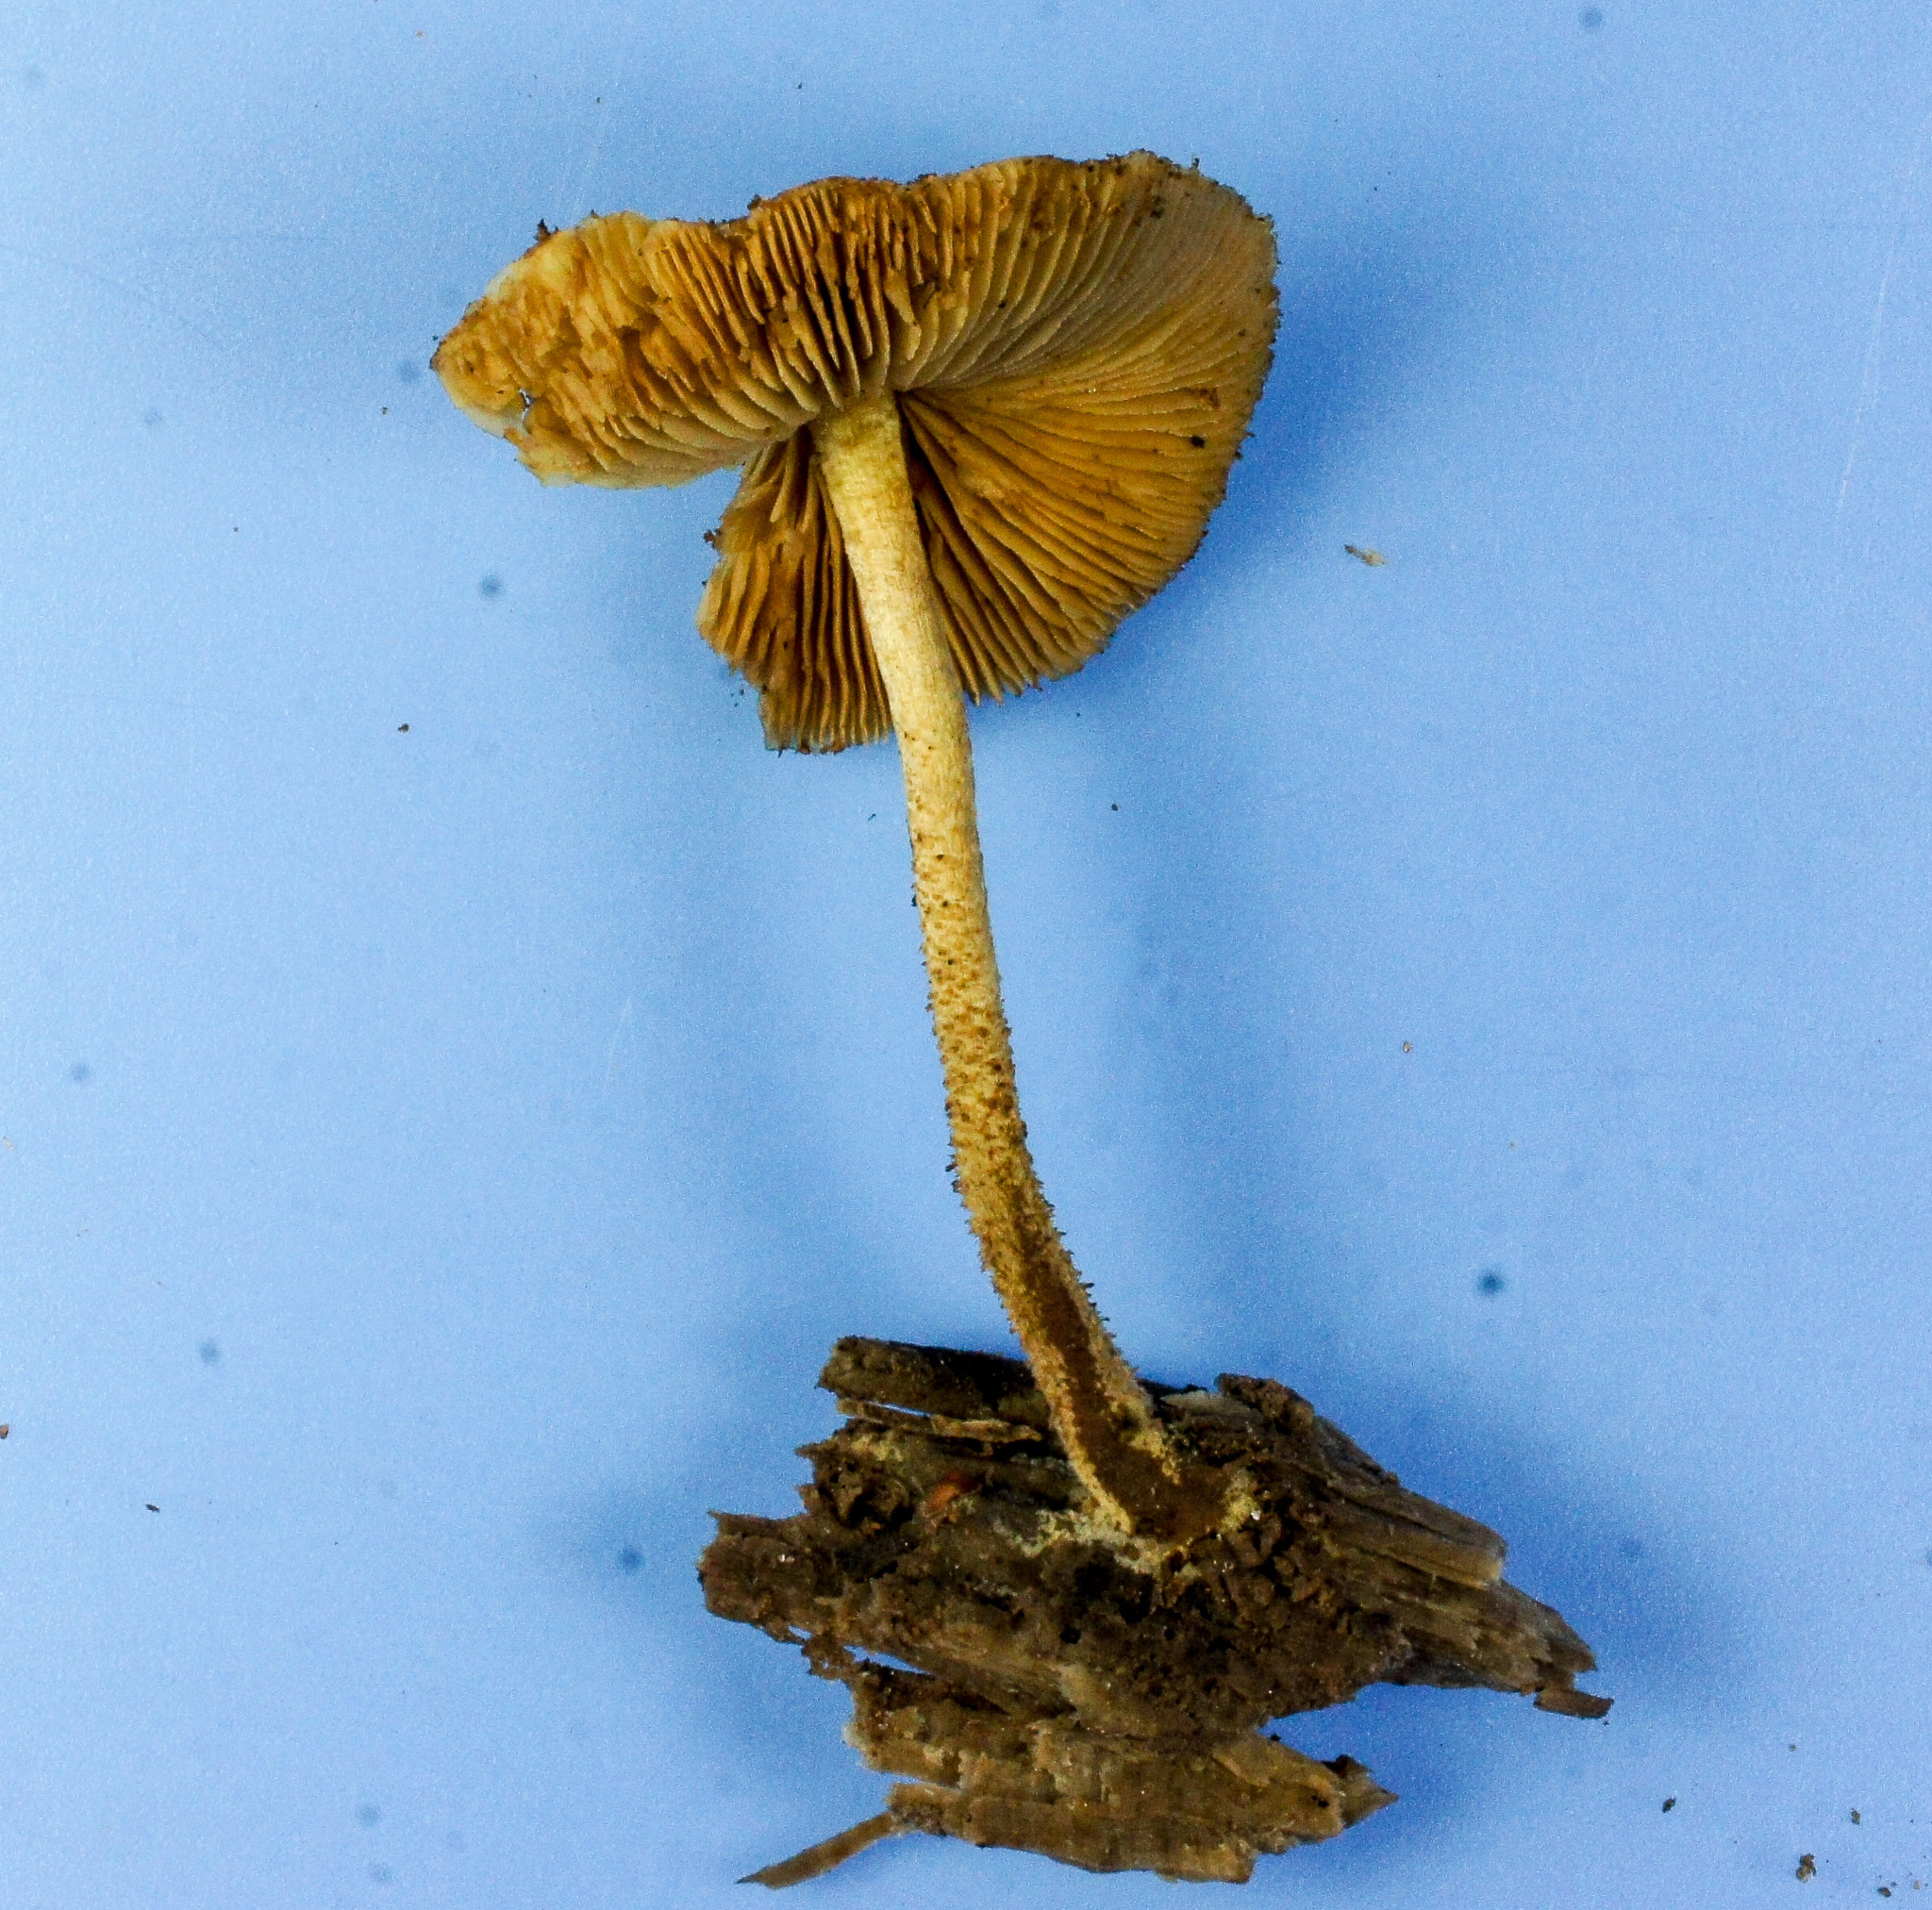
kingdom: Fungi
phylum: Basidiomycota
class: Agaricomycetes
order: Agaricales
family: Strophariaceae
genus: Pholiota
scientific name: Pholiota granulosa
